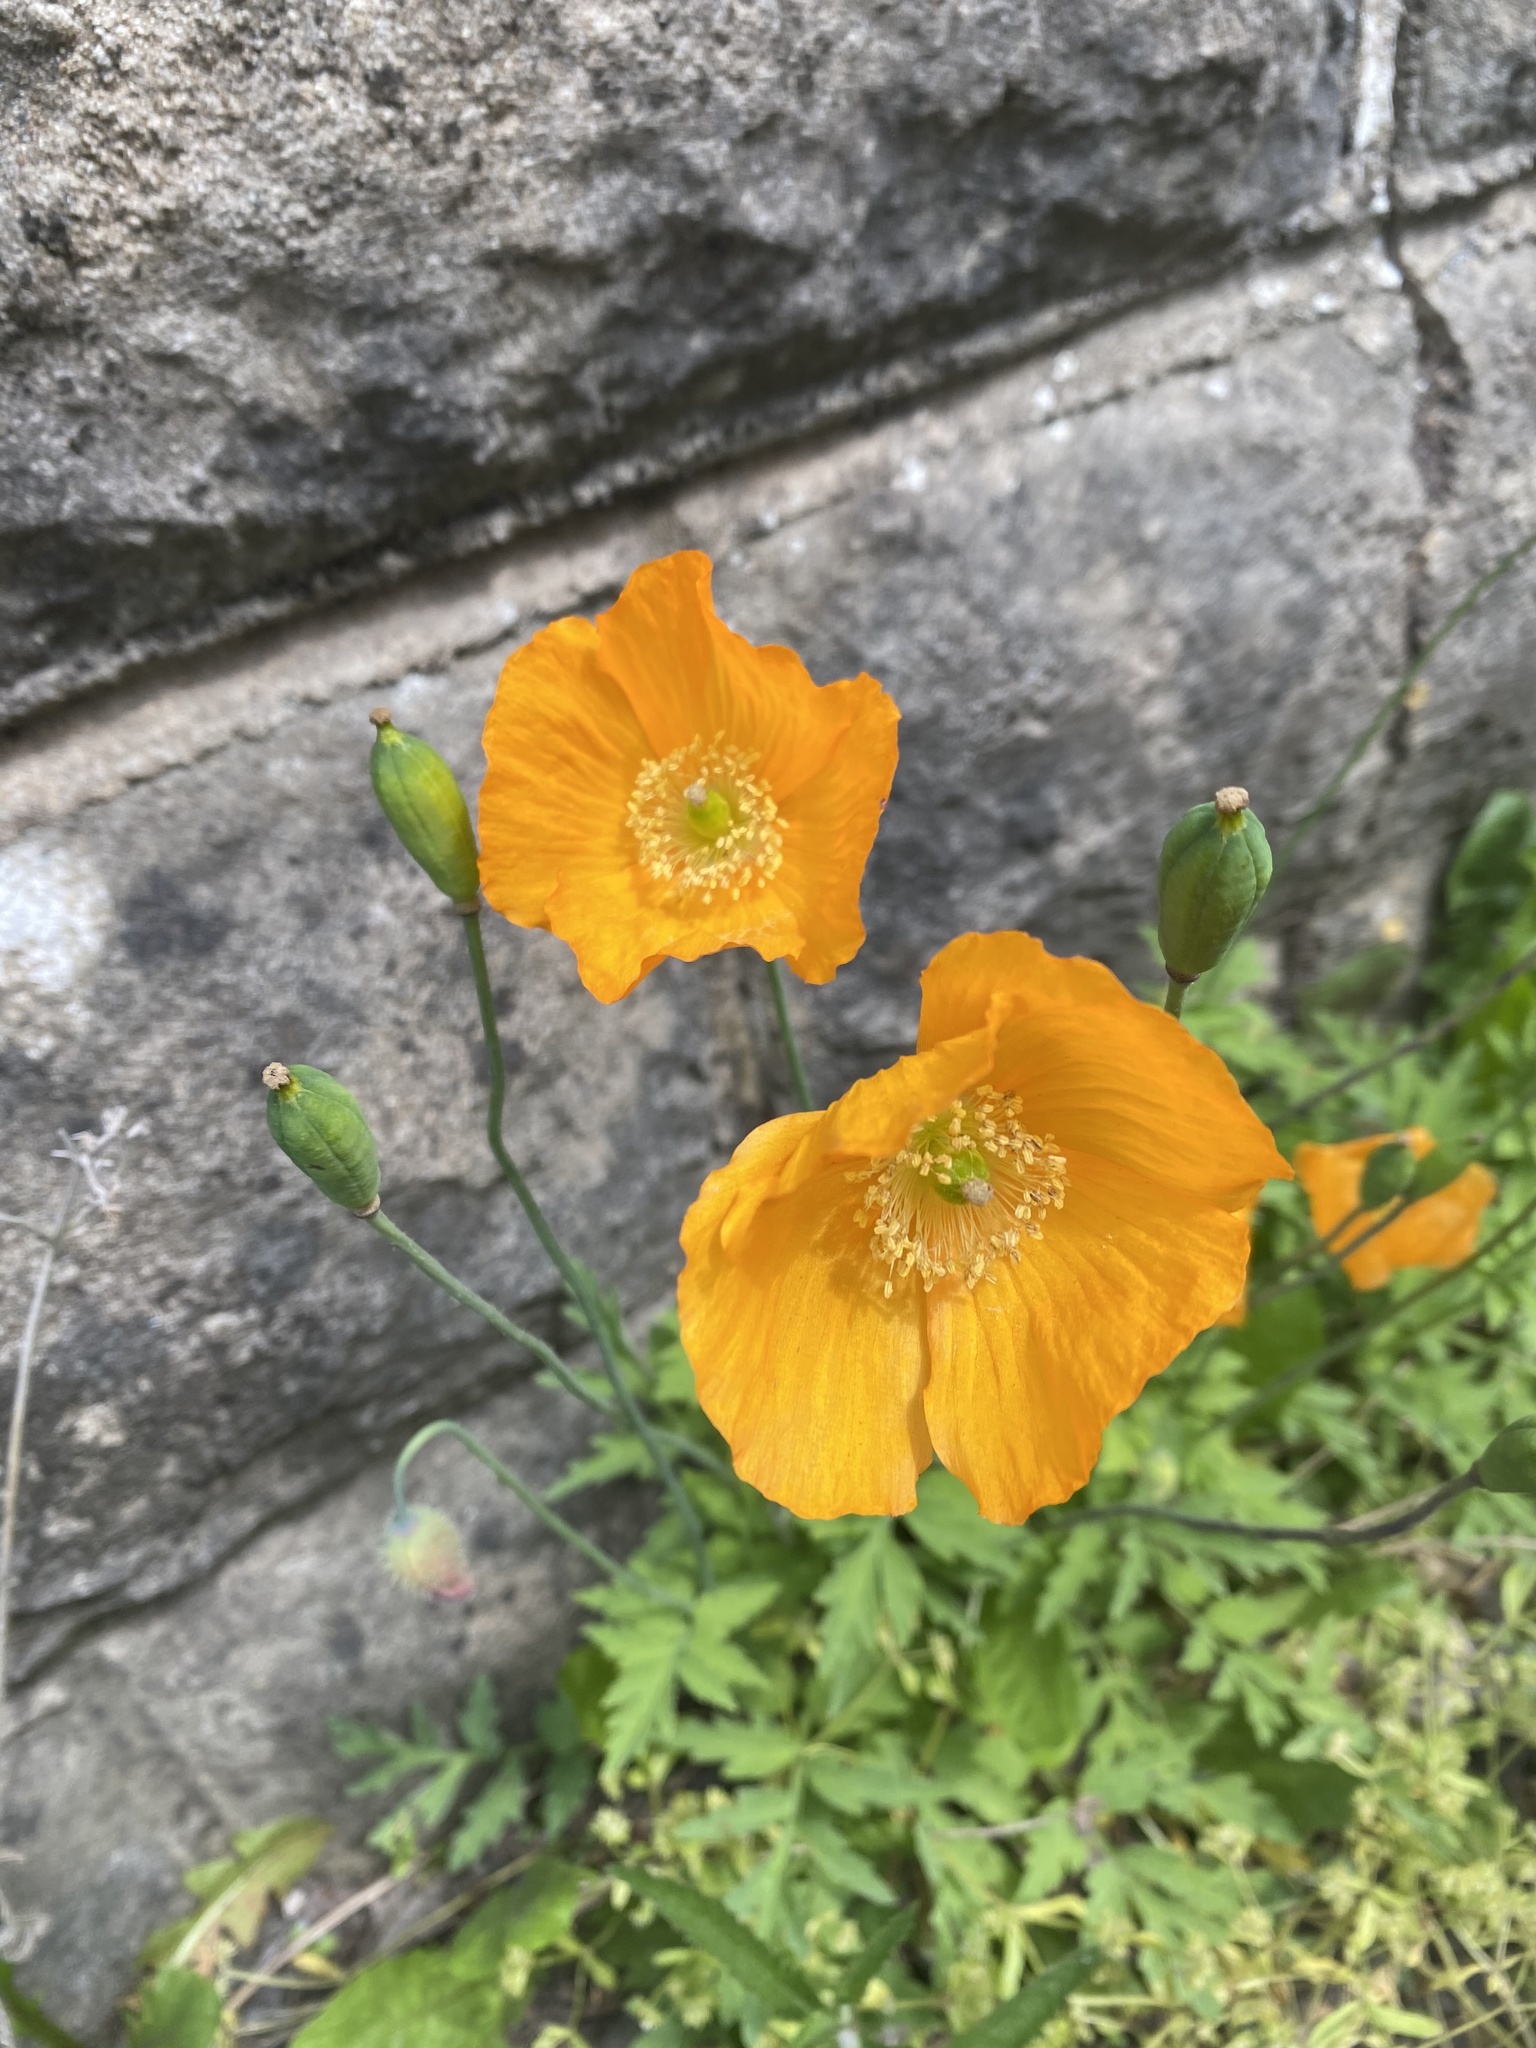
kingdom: Plantae
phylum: Tracheophyta
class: Magnoliopsida
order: Ranunculales
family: Papaveraceae
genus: Papaver
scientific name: Papaver cambricum
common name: Poppy
